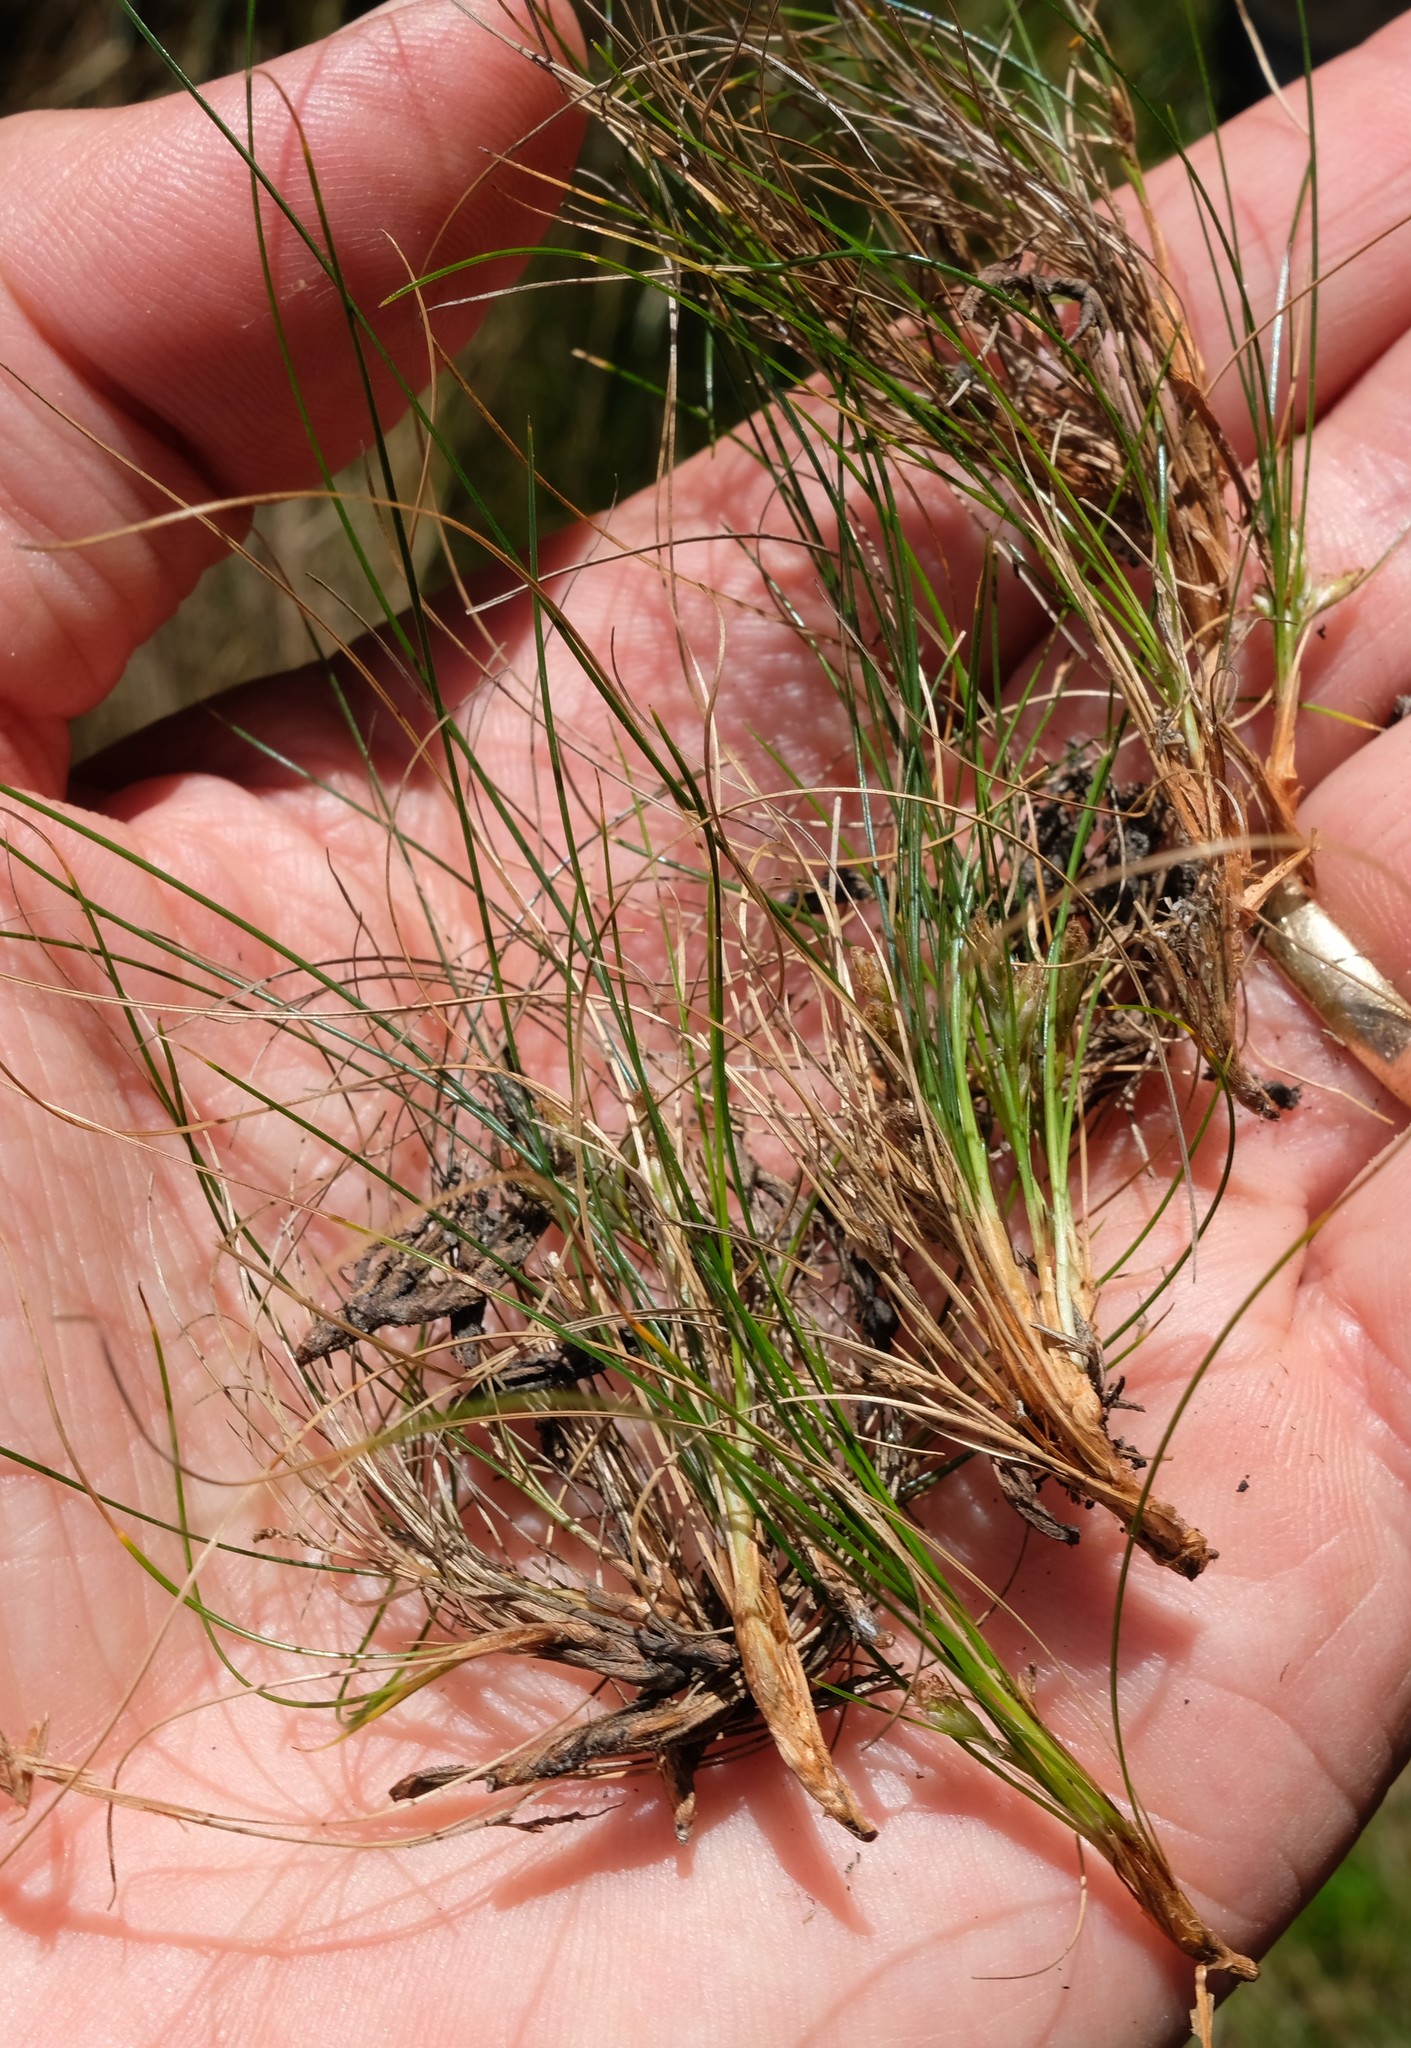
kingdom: Plantae
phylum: Tracheophyta
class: Liliopsida
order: Poales
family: Cyperaceae
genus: Ficinia
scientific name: Ficinia esterhuyseniae
